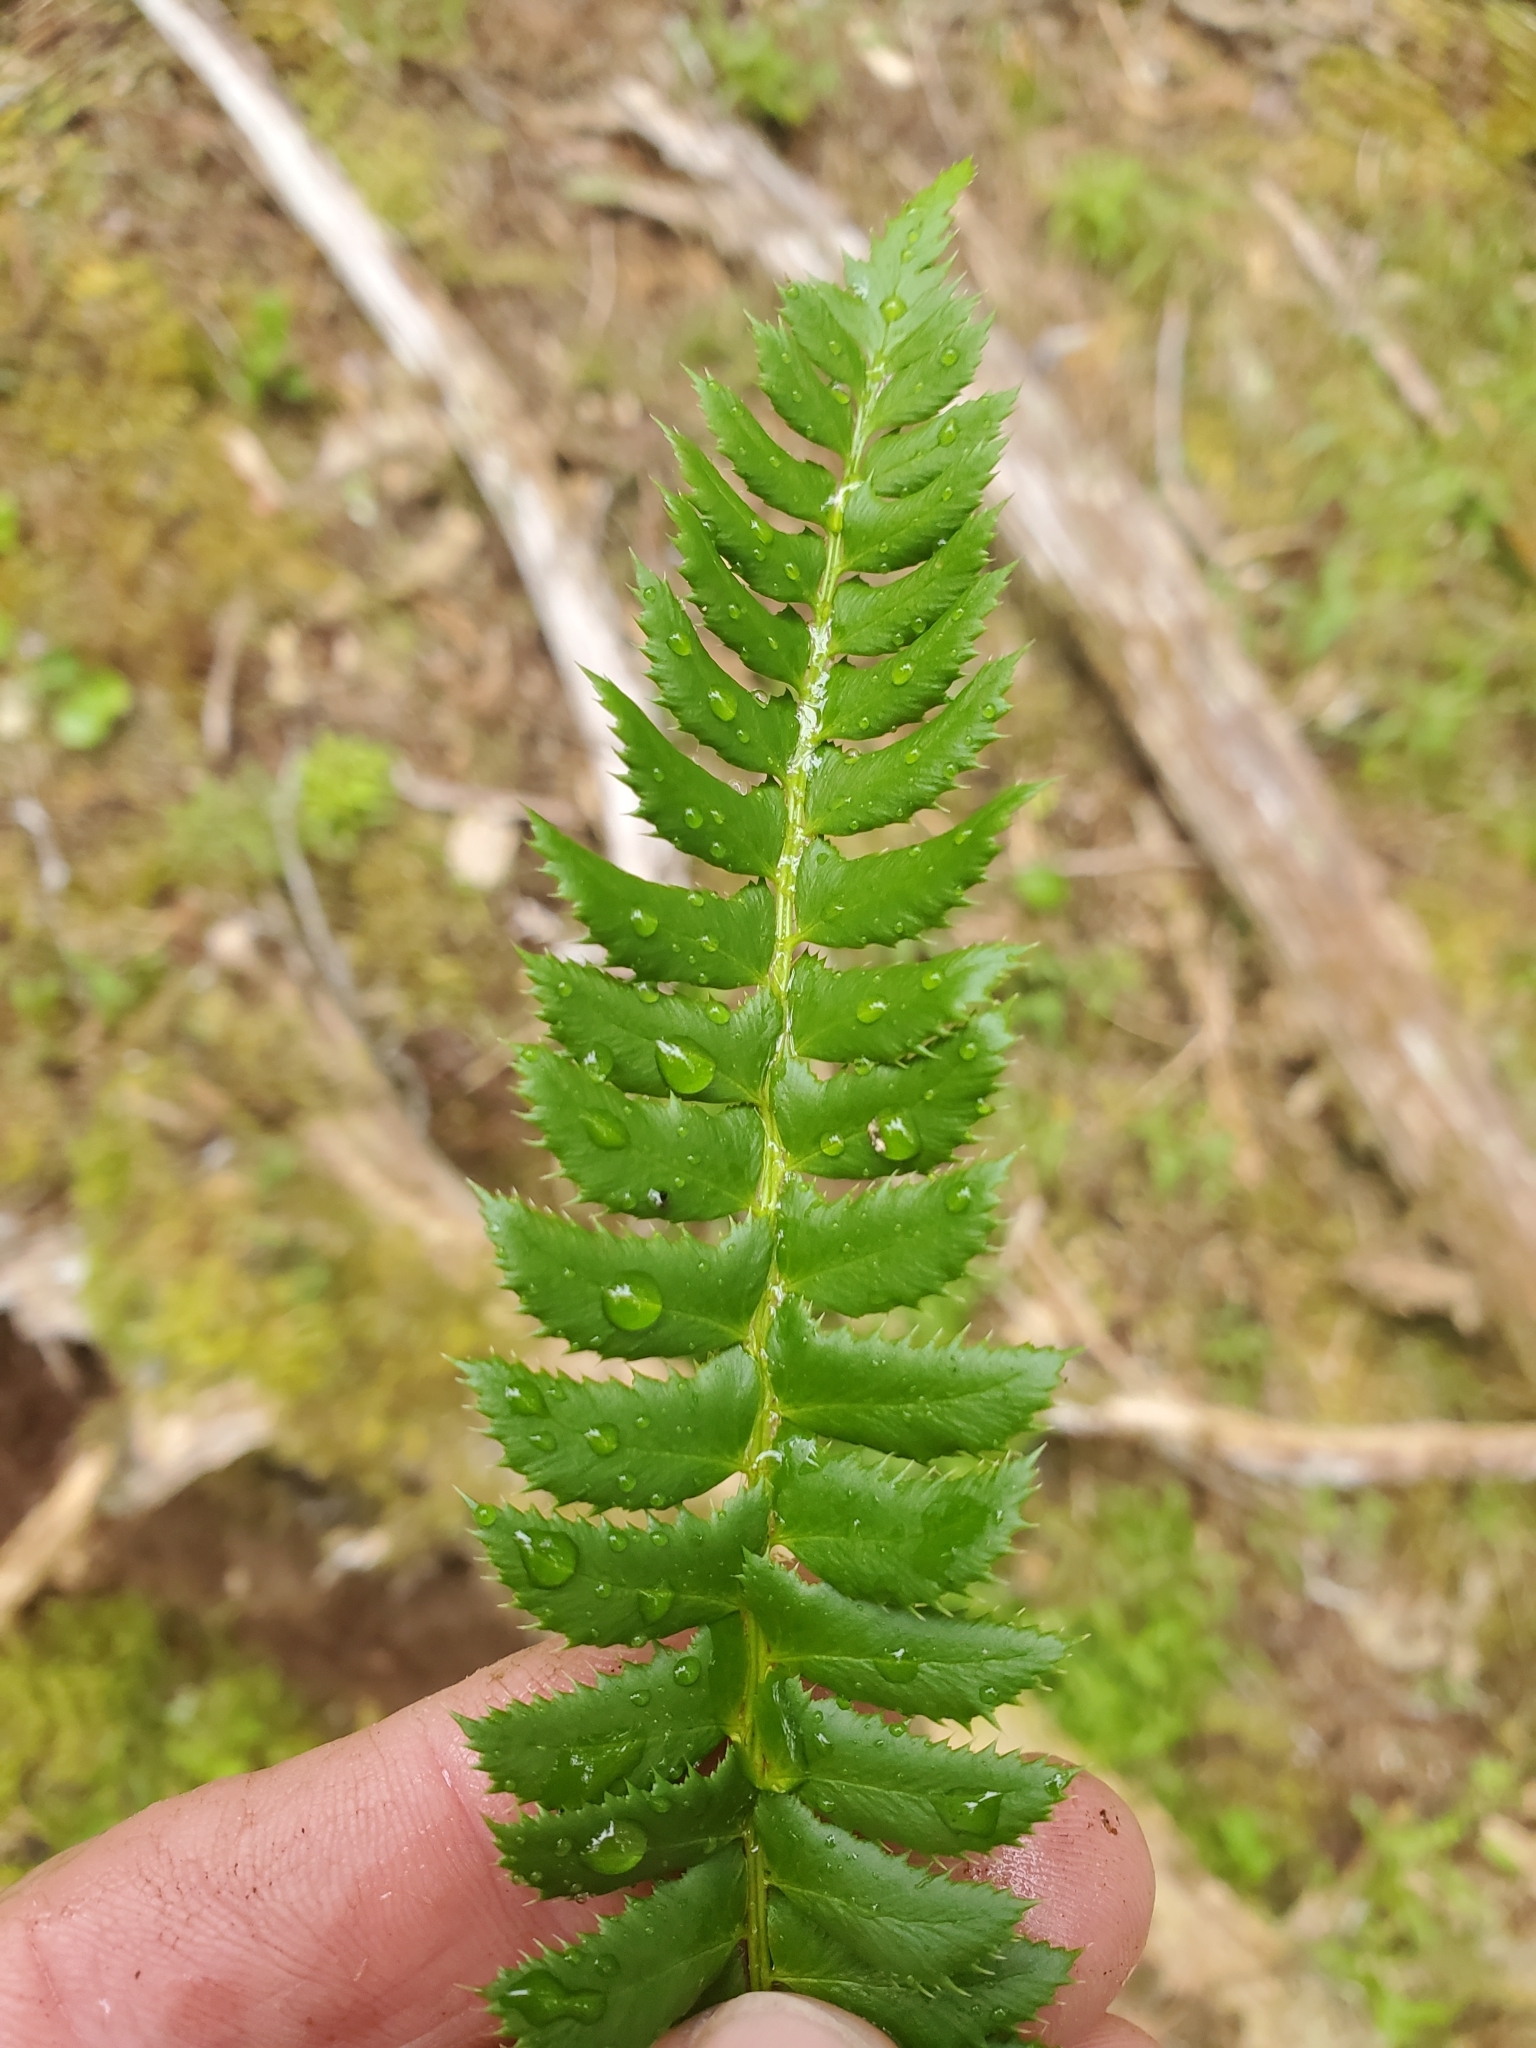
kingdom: Plantae
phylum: Tracheophyta
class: Polypodiopsida
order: Polypodiales
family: Dryopteridaceae
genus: Polystichum
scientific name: Polystichum lonchitis
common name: Holly fern
